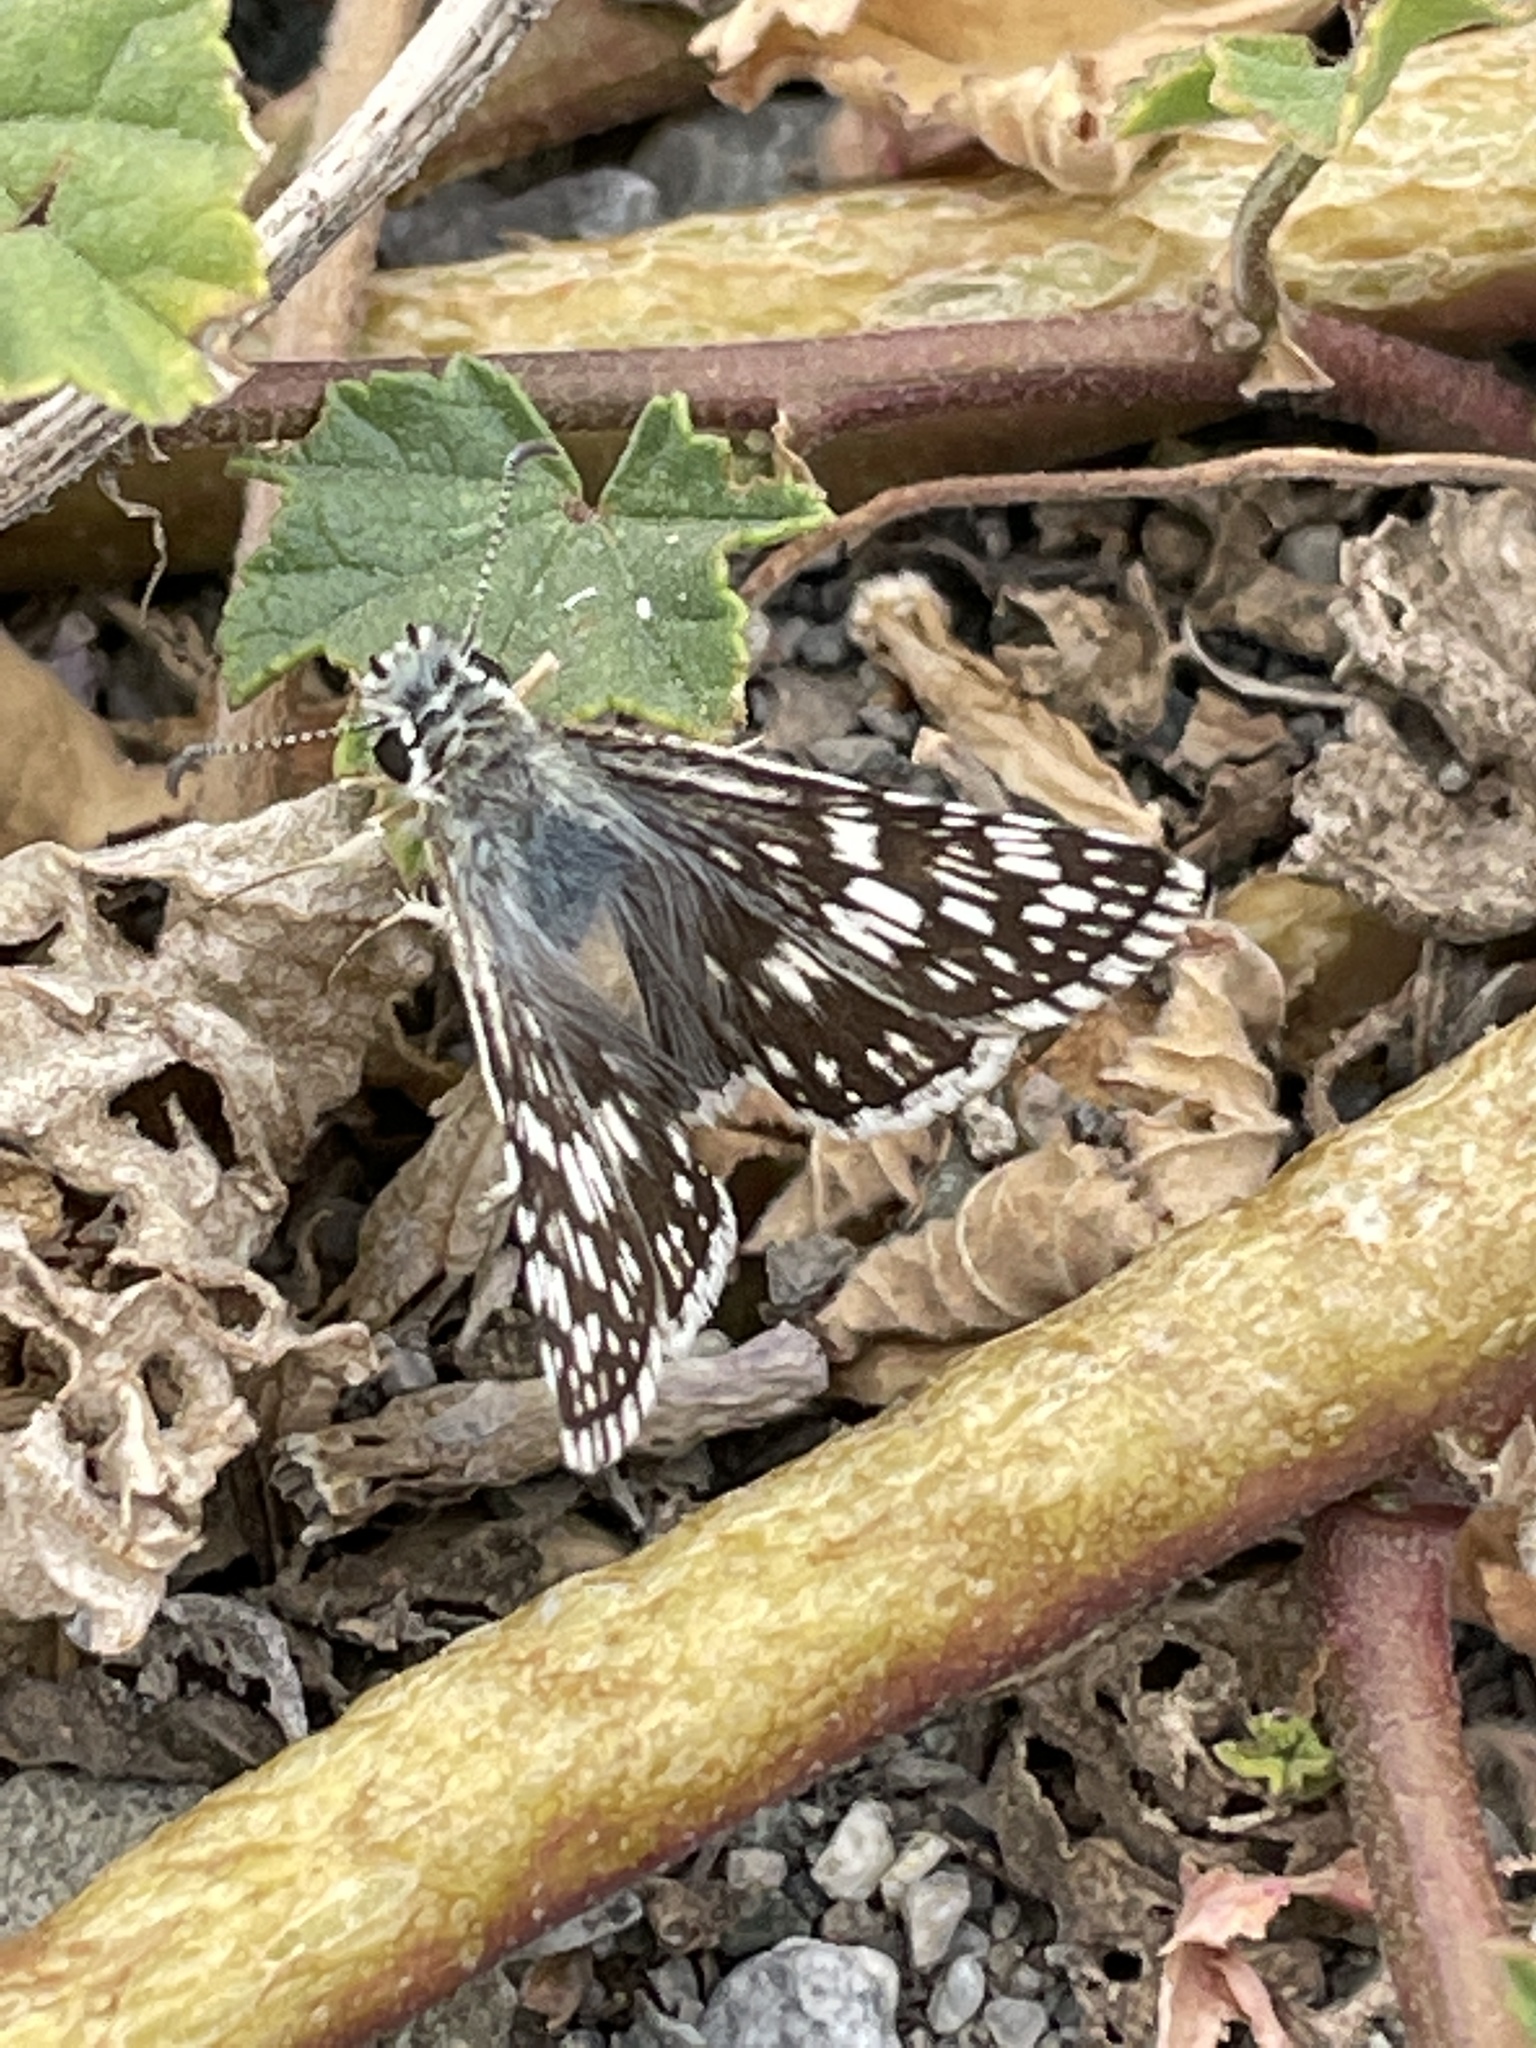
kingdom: Animalia
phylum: Arthropoda
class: Insecta
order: Lepidoptera
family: Hesperiidae
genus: Burnsius
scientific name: Burnsius communis
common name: Common checkered-skipper
